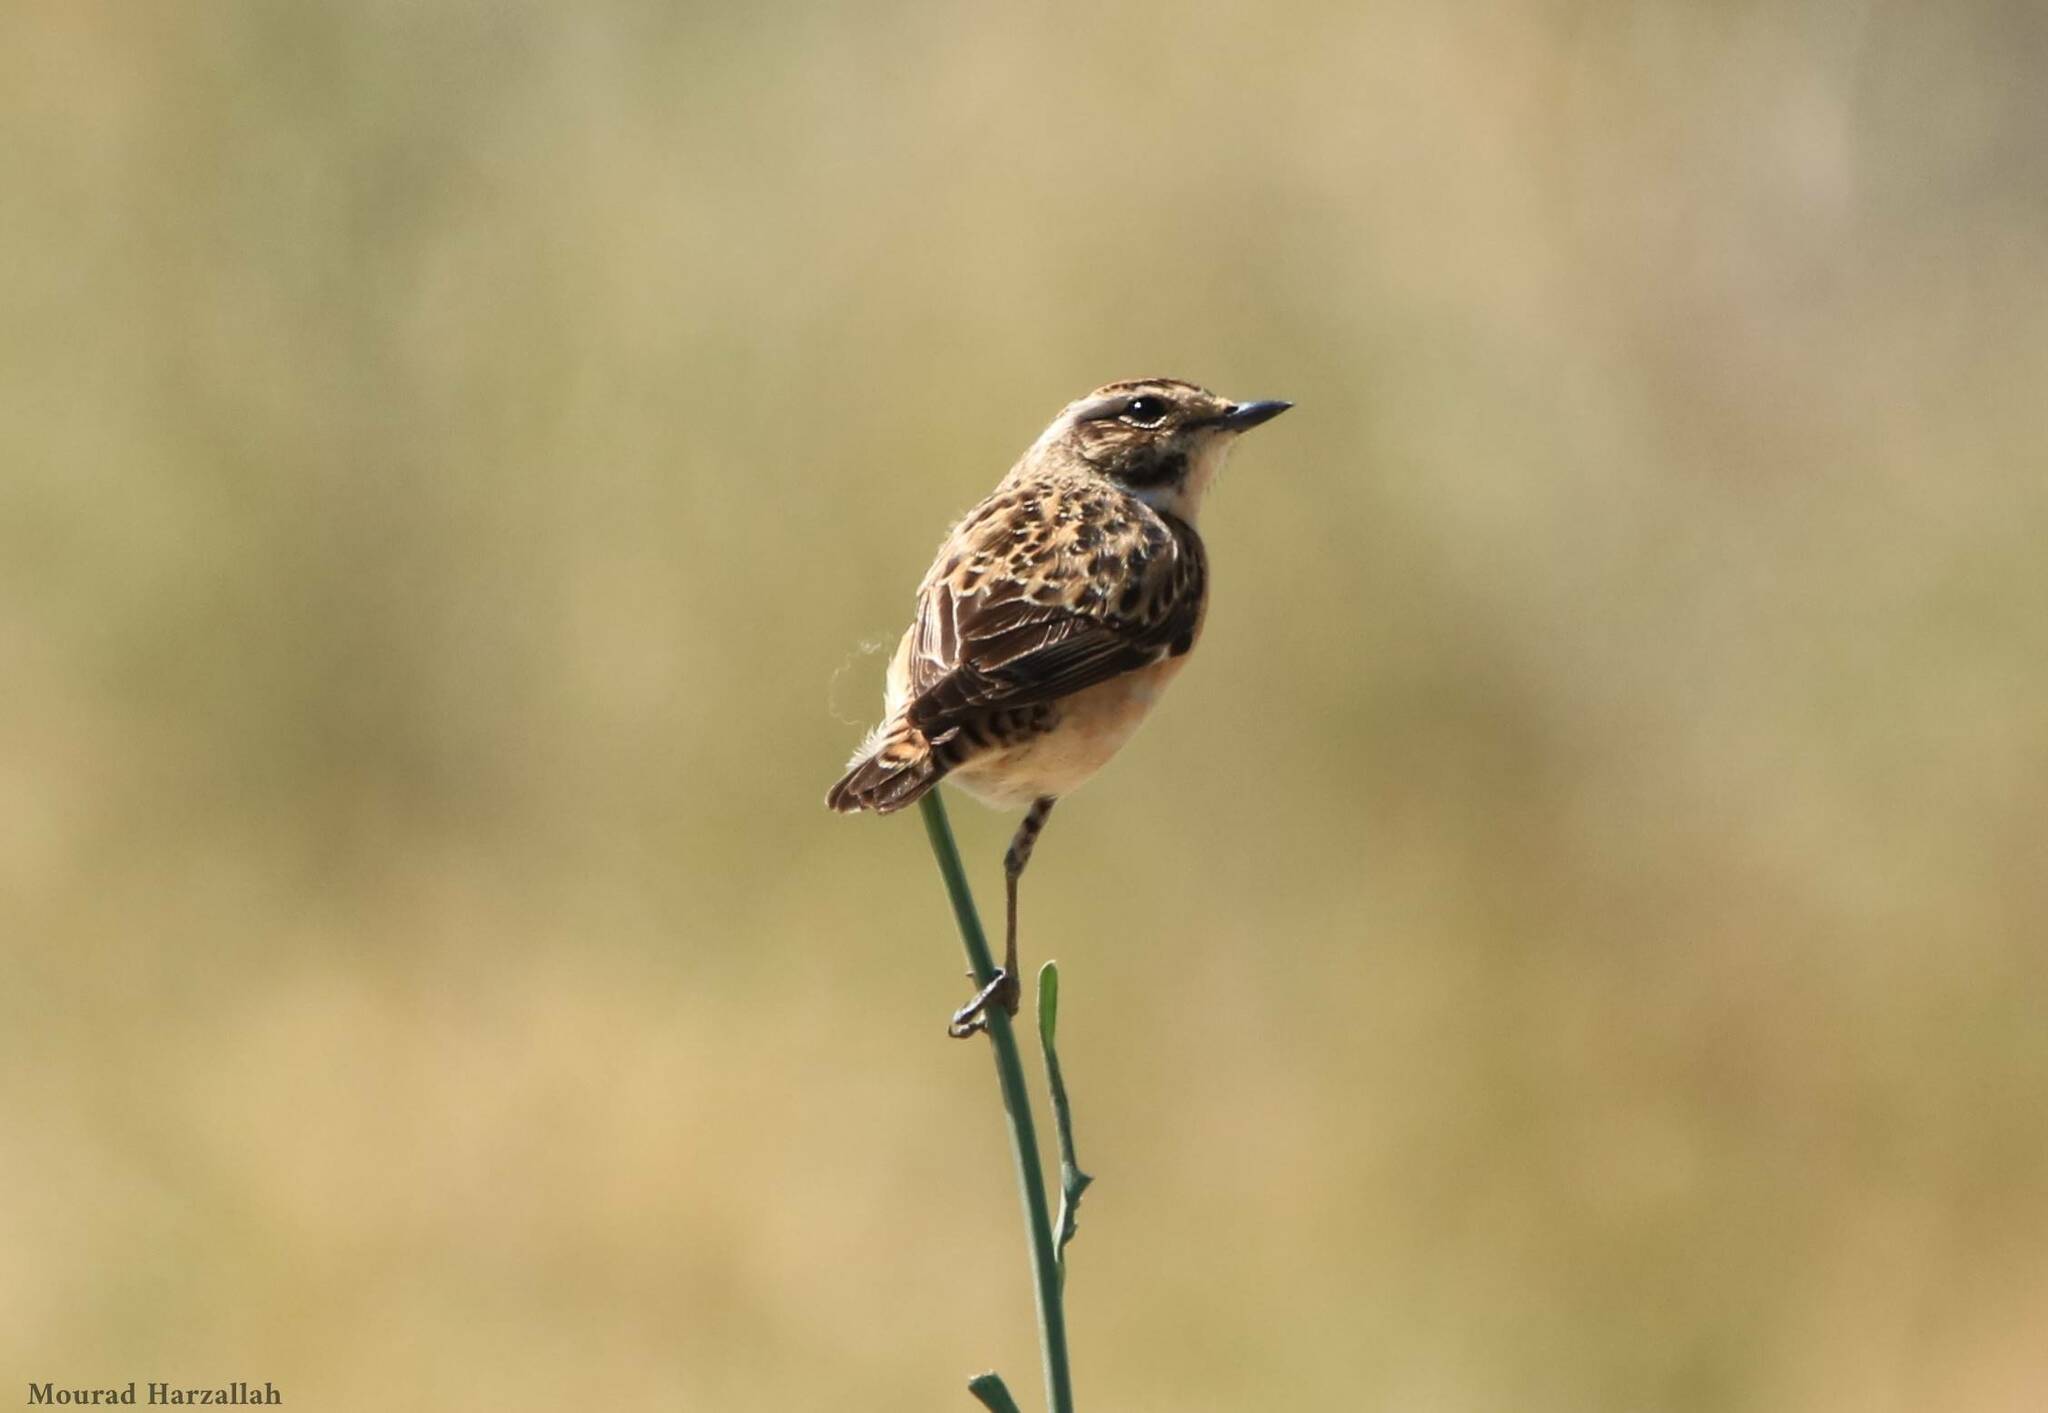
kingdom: Animalia
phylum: Chordata
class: Aves
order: Passeriformes
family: Muscicapidae
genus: Saxicola
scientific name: Saxicola rubetra
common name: Whinchat
